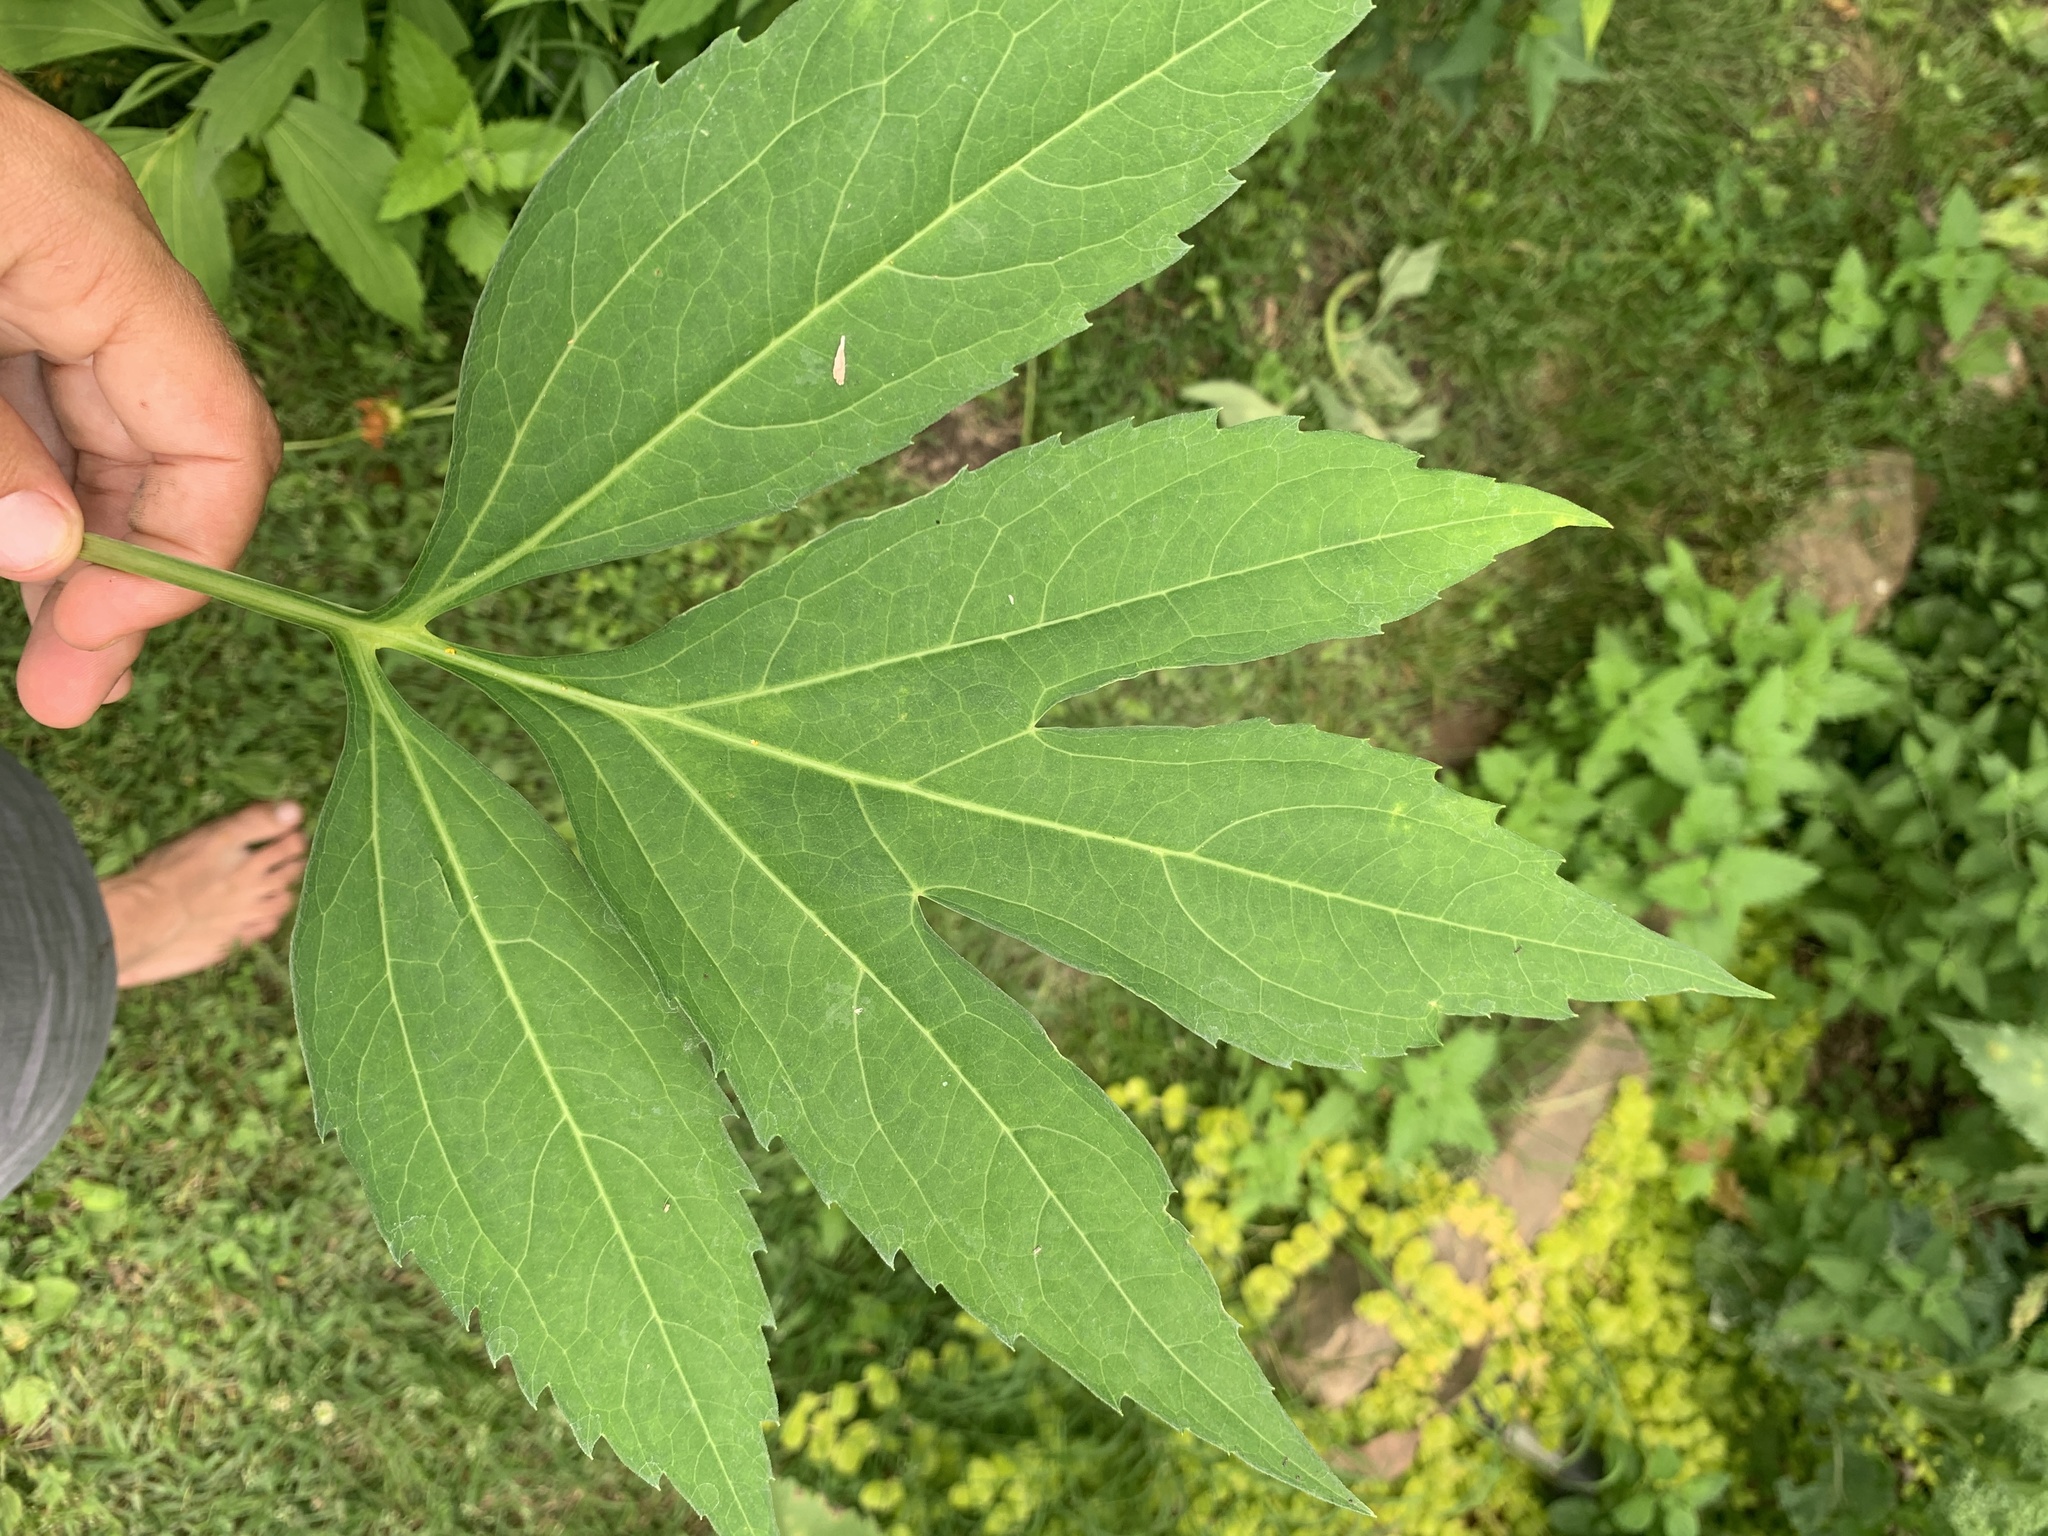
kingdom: Plantae
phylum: Tracheophyta
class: Magnoliopsida
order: Asterales
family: Asteraceae
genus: Rudbeckia
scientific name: Rudbeckia laciniata
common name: Coneflower
